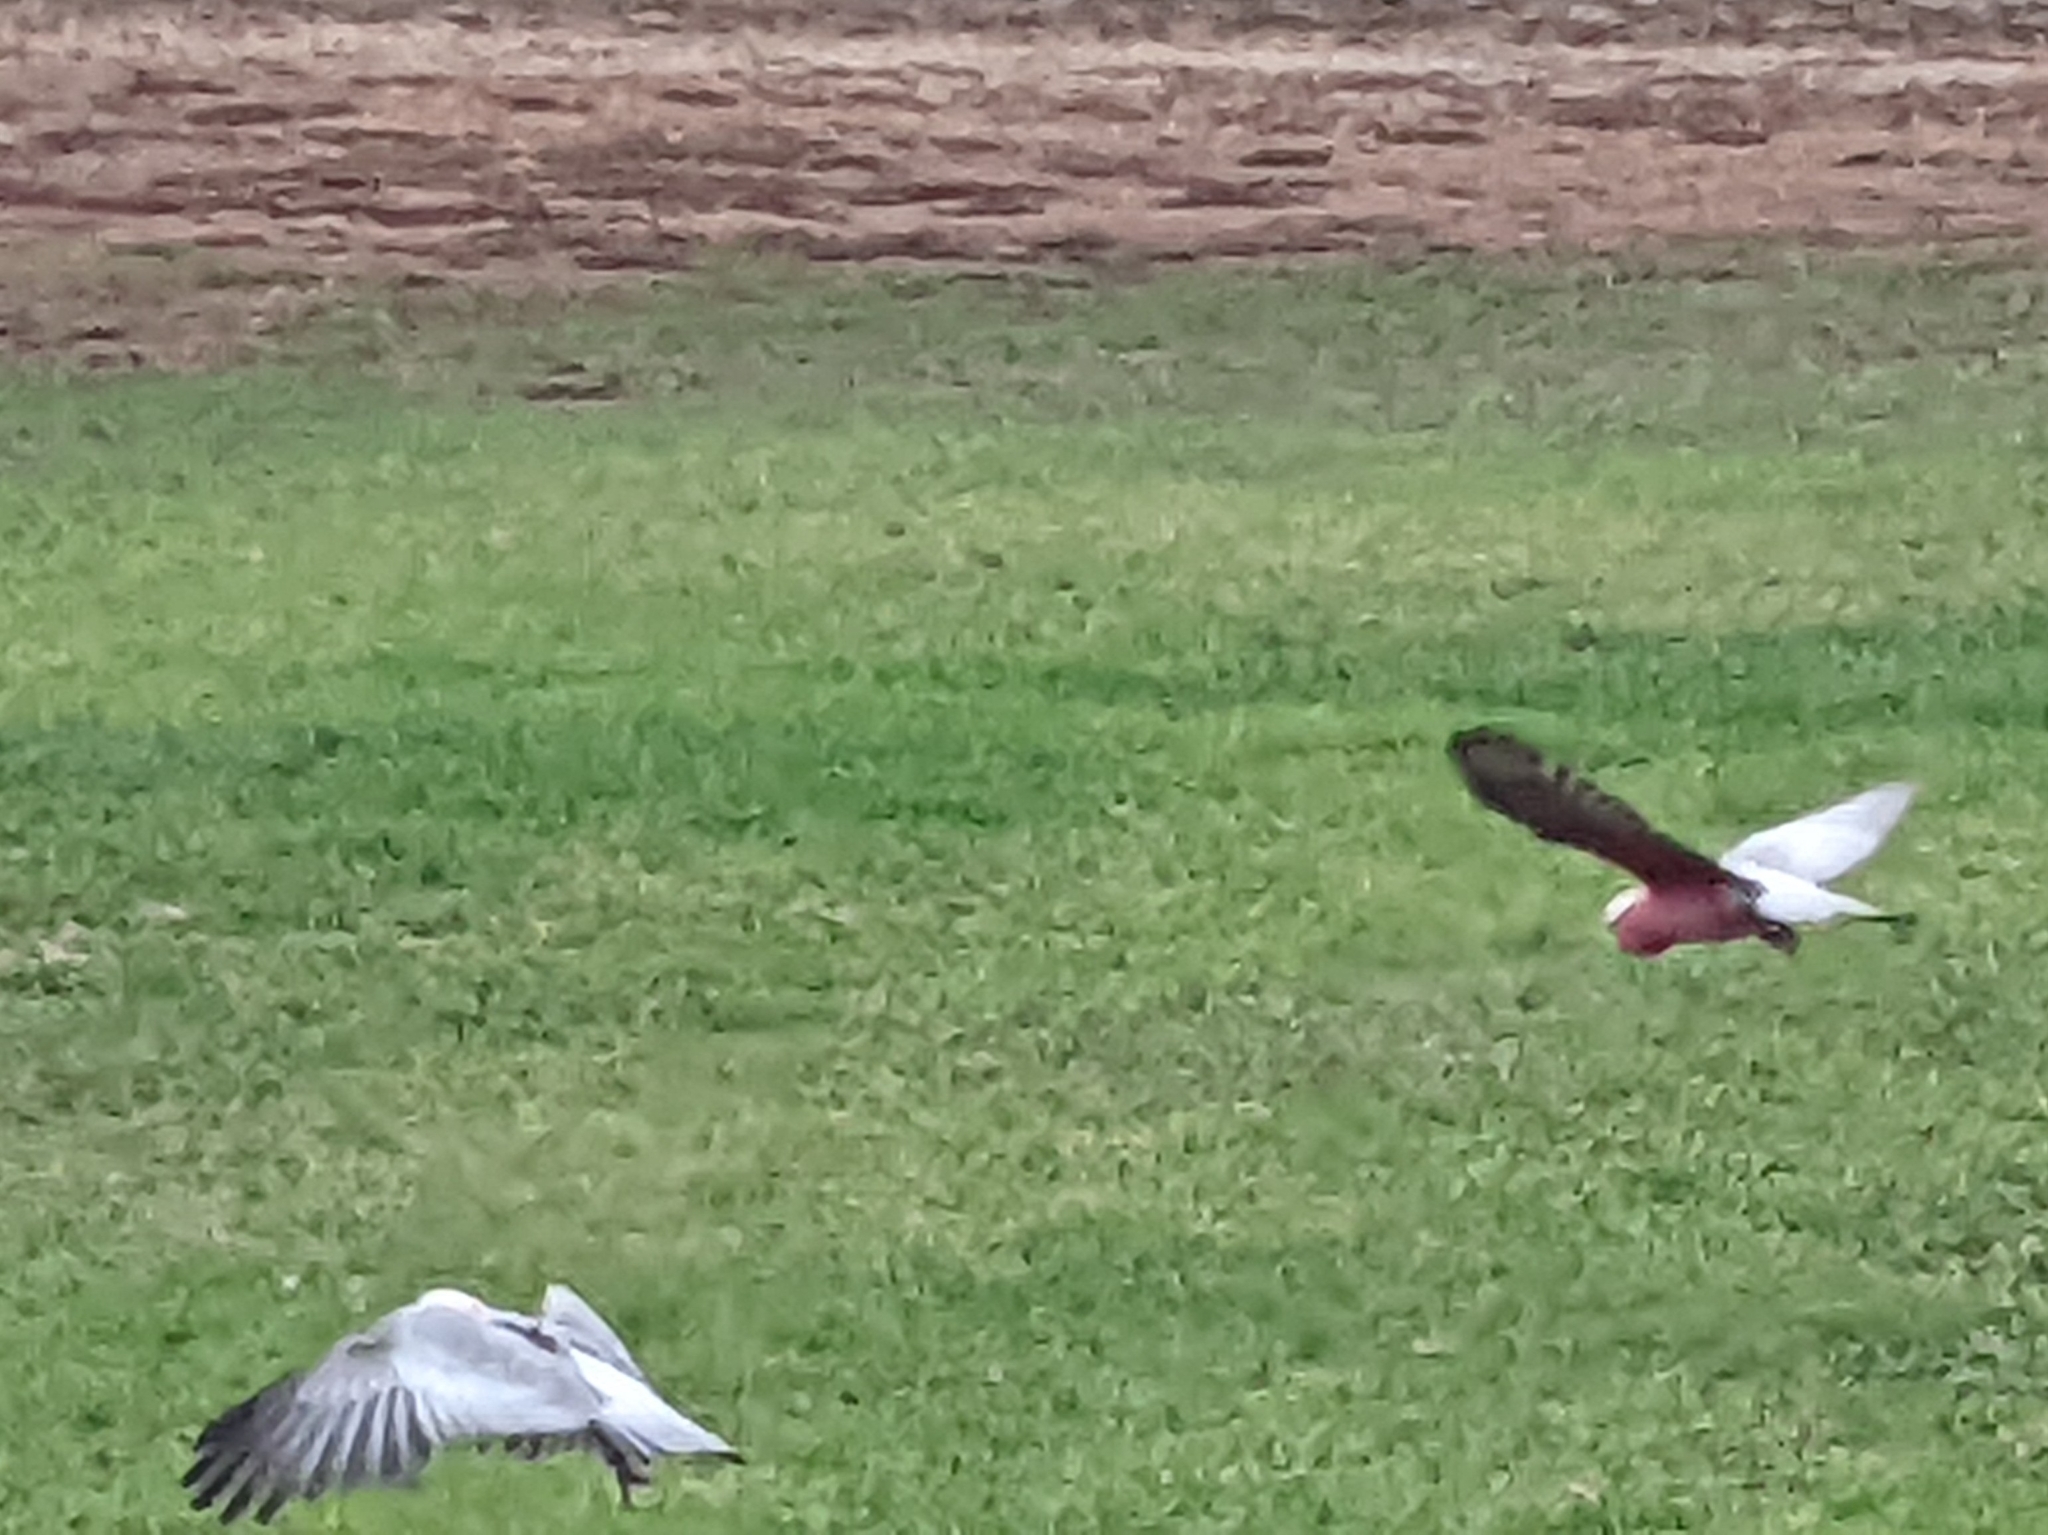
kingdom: Animalia
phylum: Chordata
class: Aves
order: Psittaciformes
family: Psittacidae
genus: Eolophus
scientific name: Eolophus roseicapilla
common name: Galah
